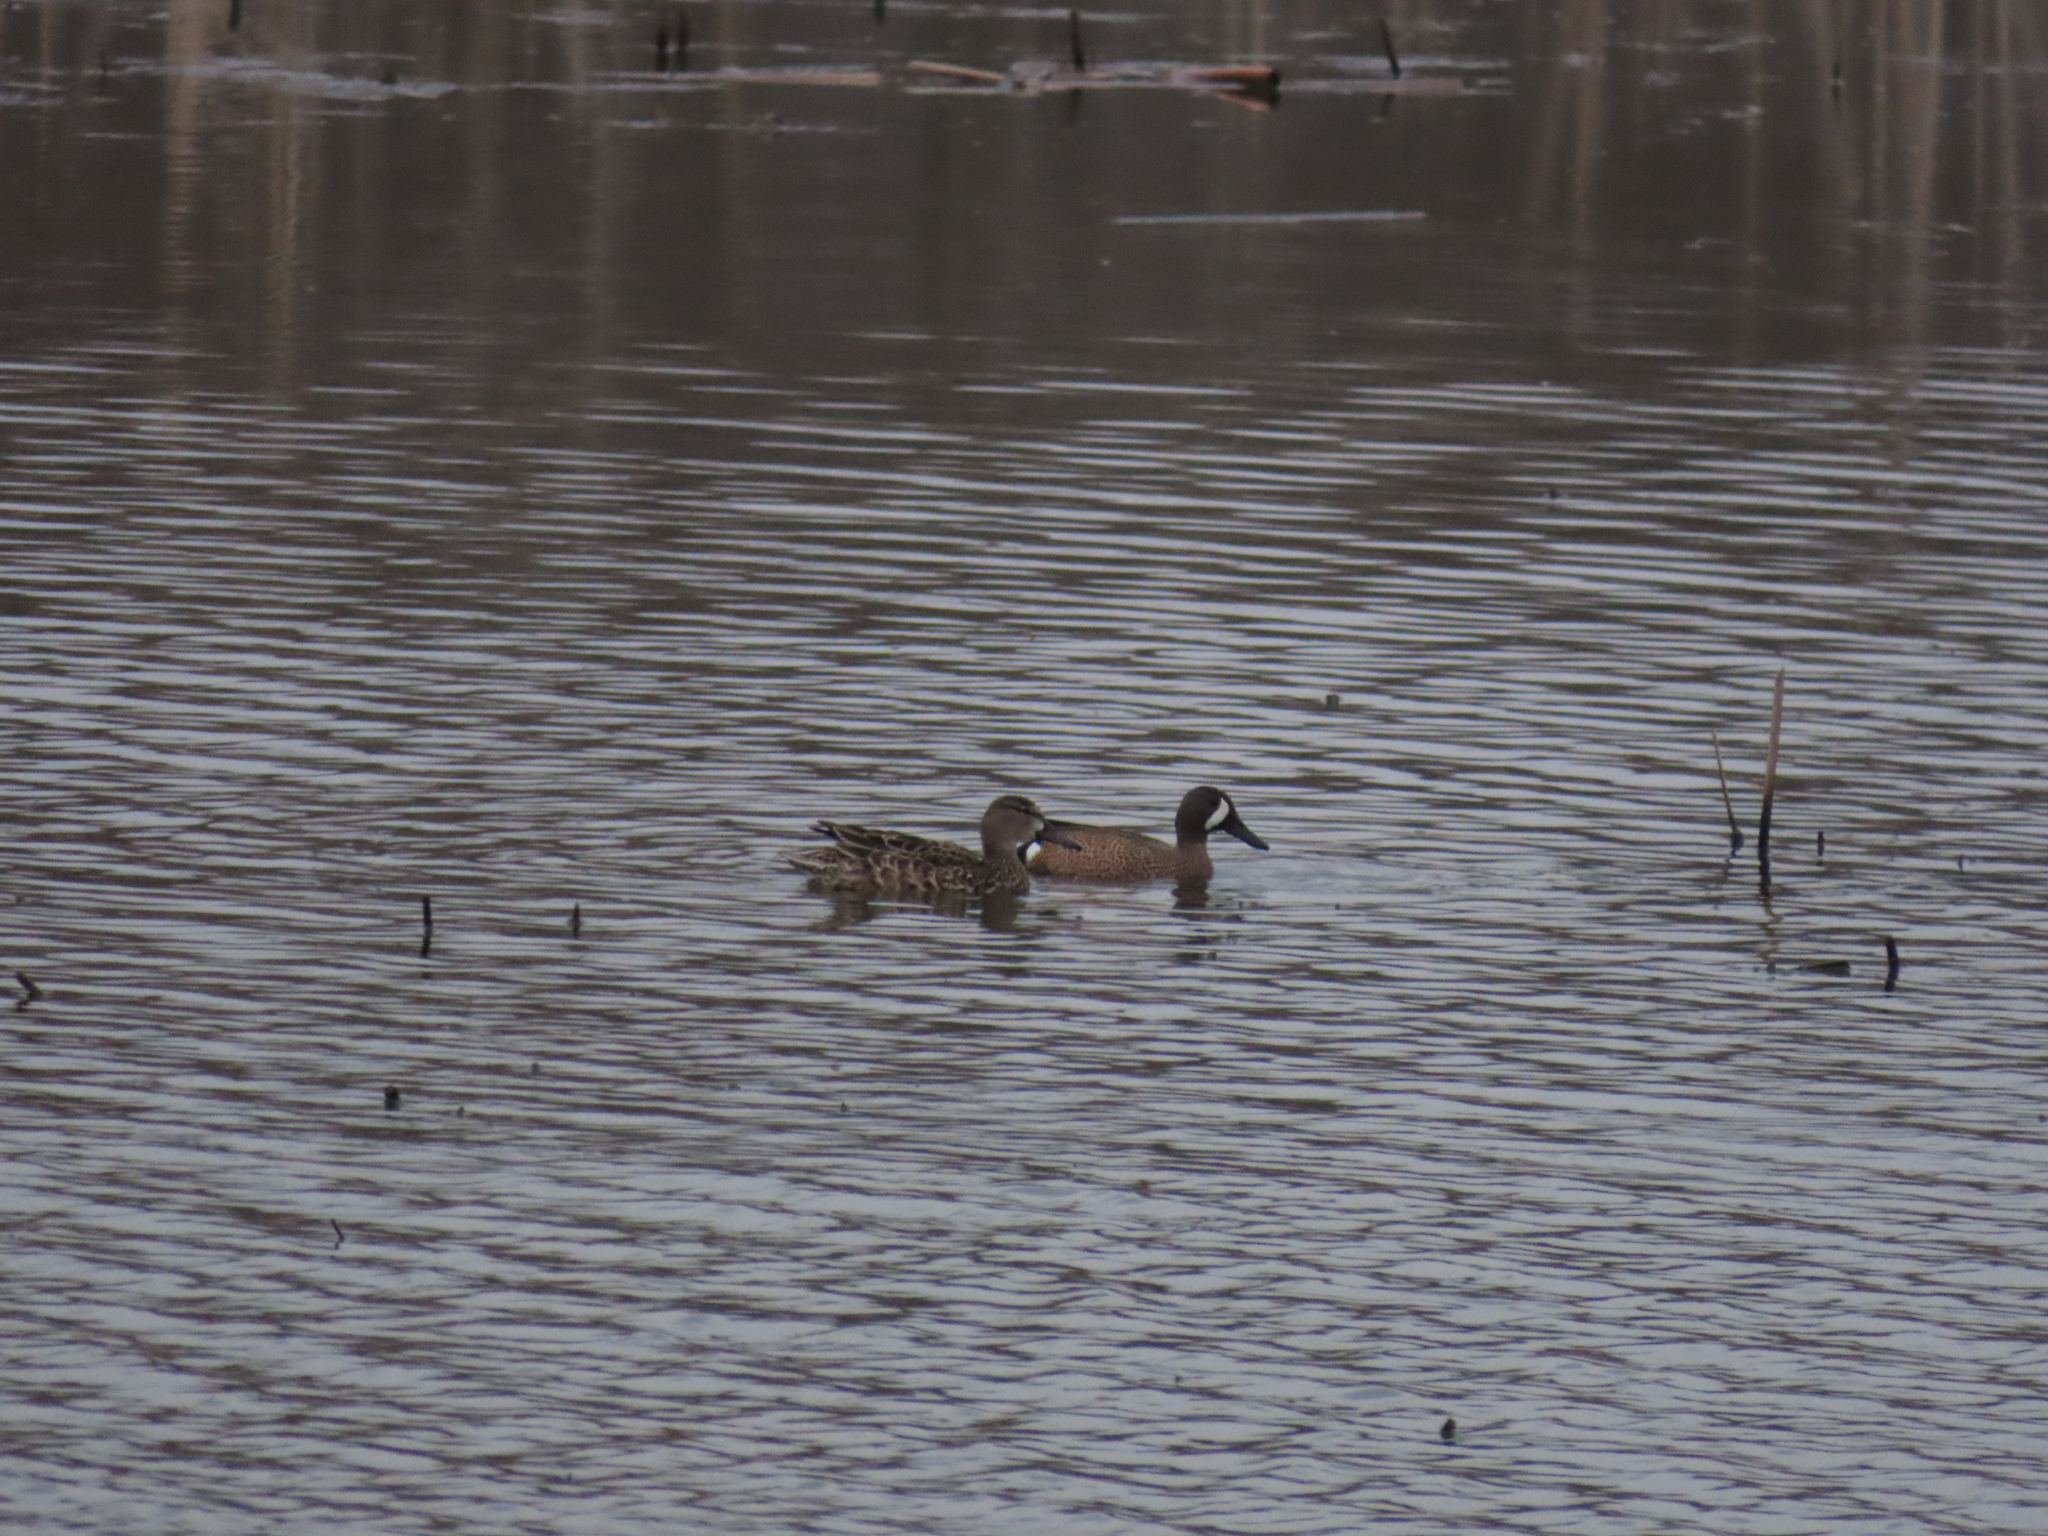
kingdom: Animalia
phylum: Chordata
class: Aves
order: Anseriformes
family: Anatidae
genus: Spatula
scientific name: Spatula discors
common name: Blue-winged teal
